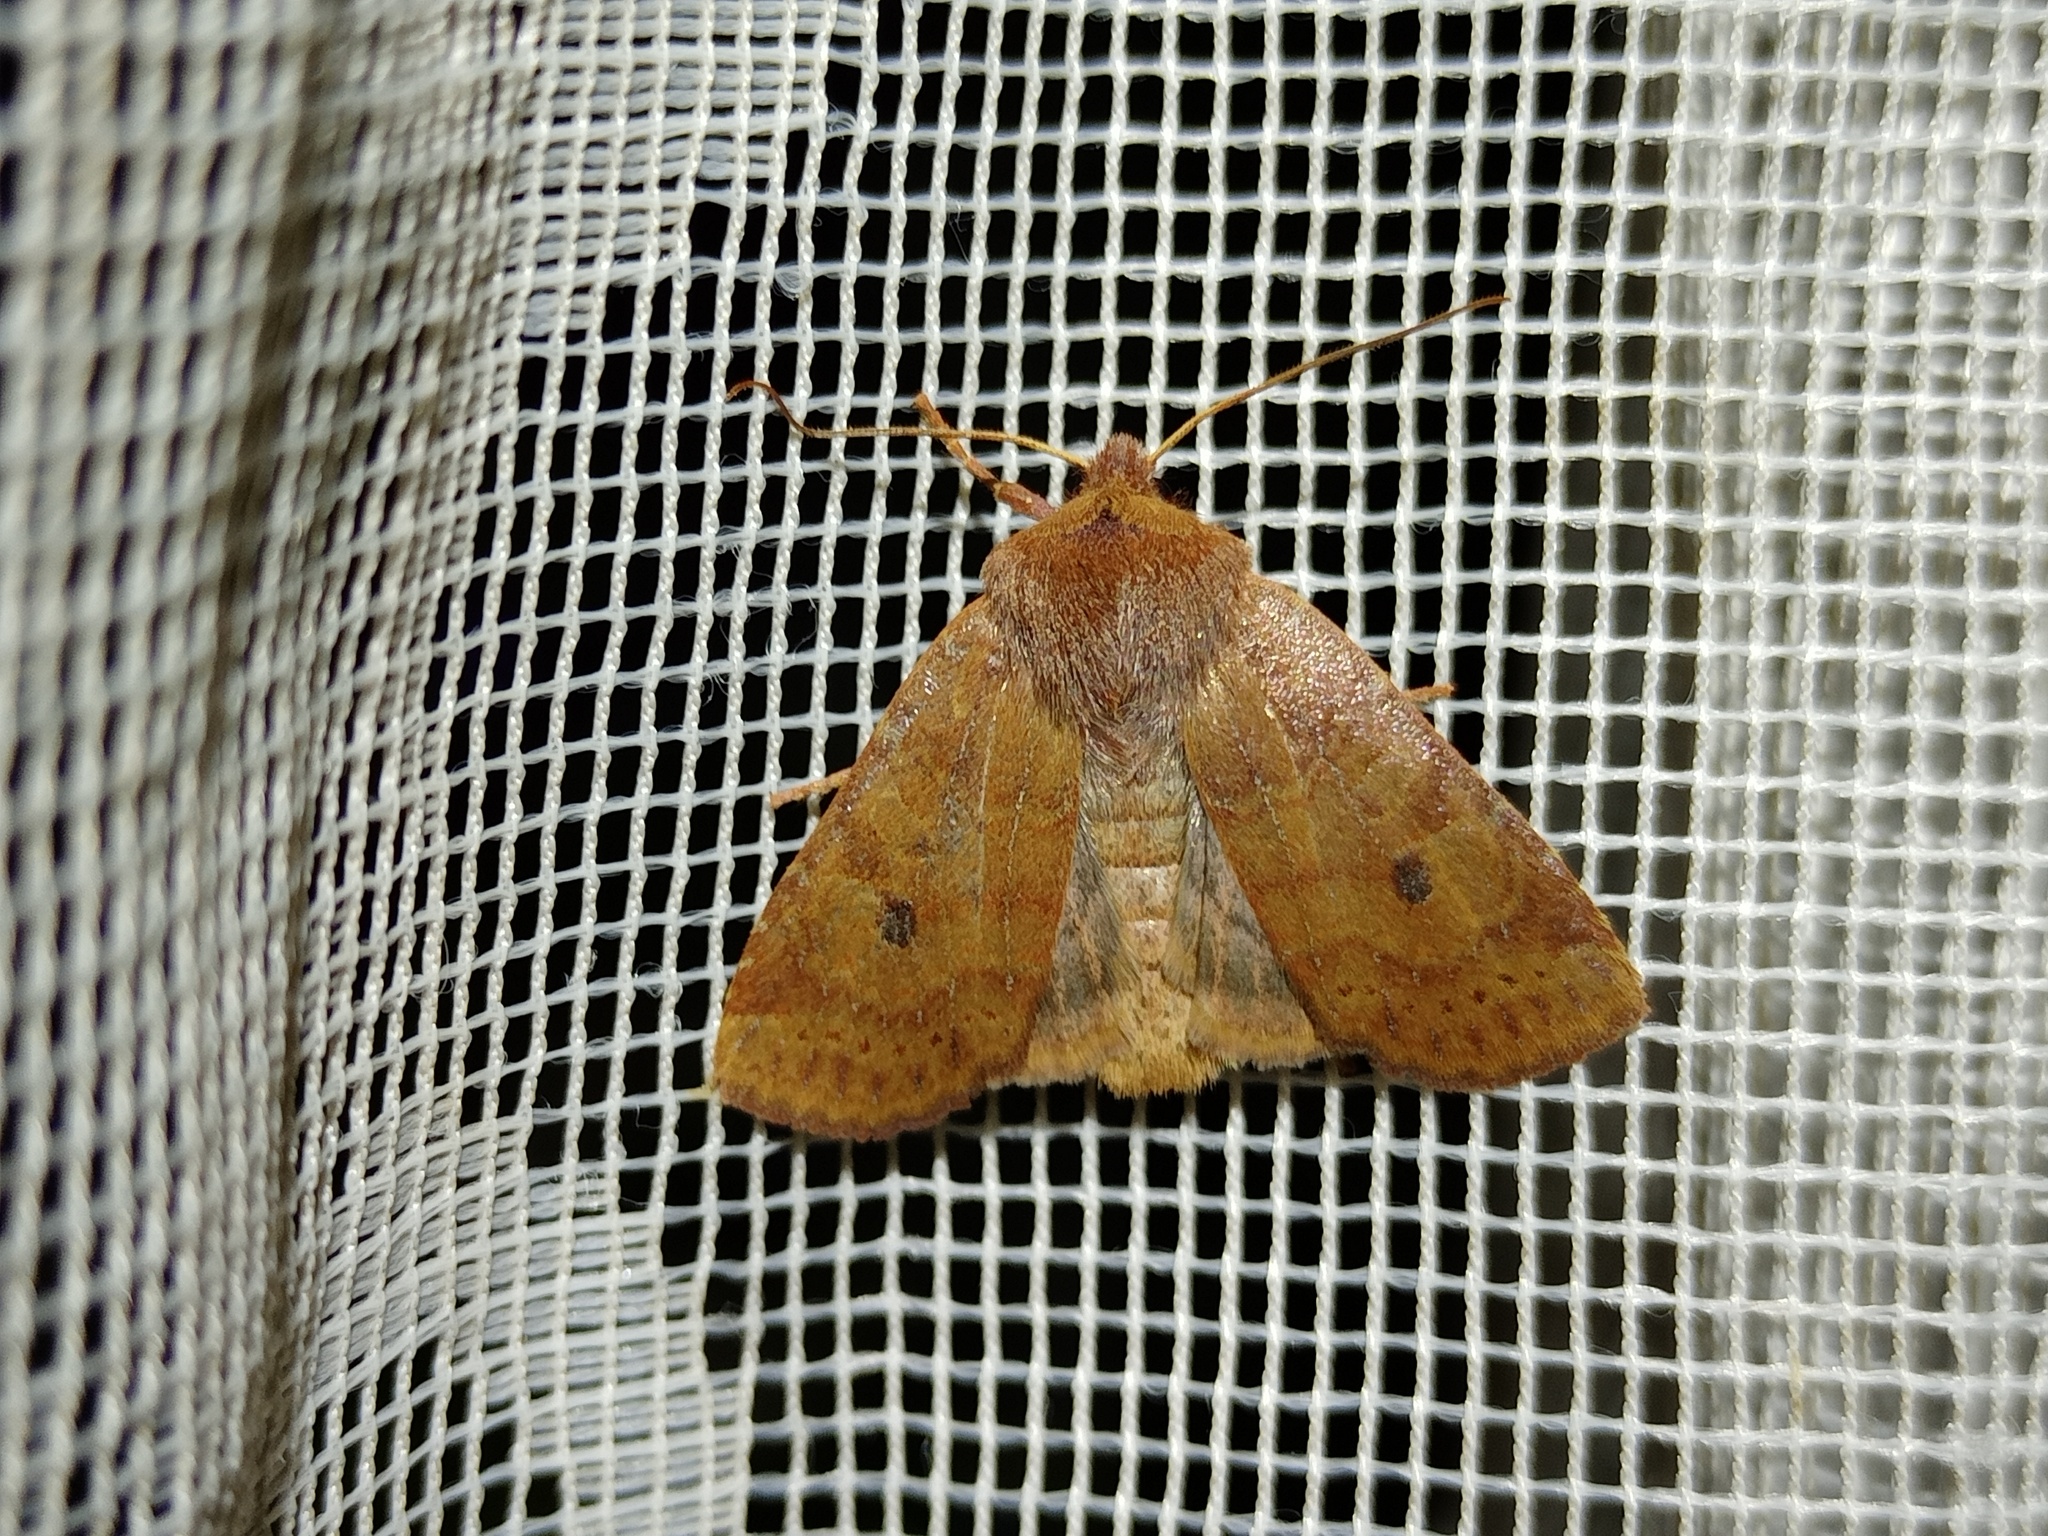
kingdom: Animalia
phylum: Arthropoda
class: Insecta
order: Lepidoptera
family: Noctuidae
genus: Conistra
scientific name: Conistra vaccinii
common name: Chestnut
